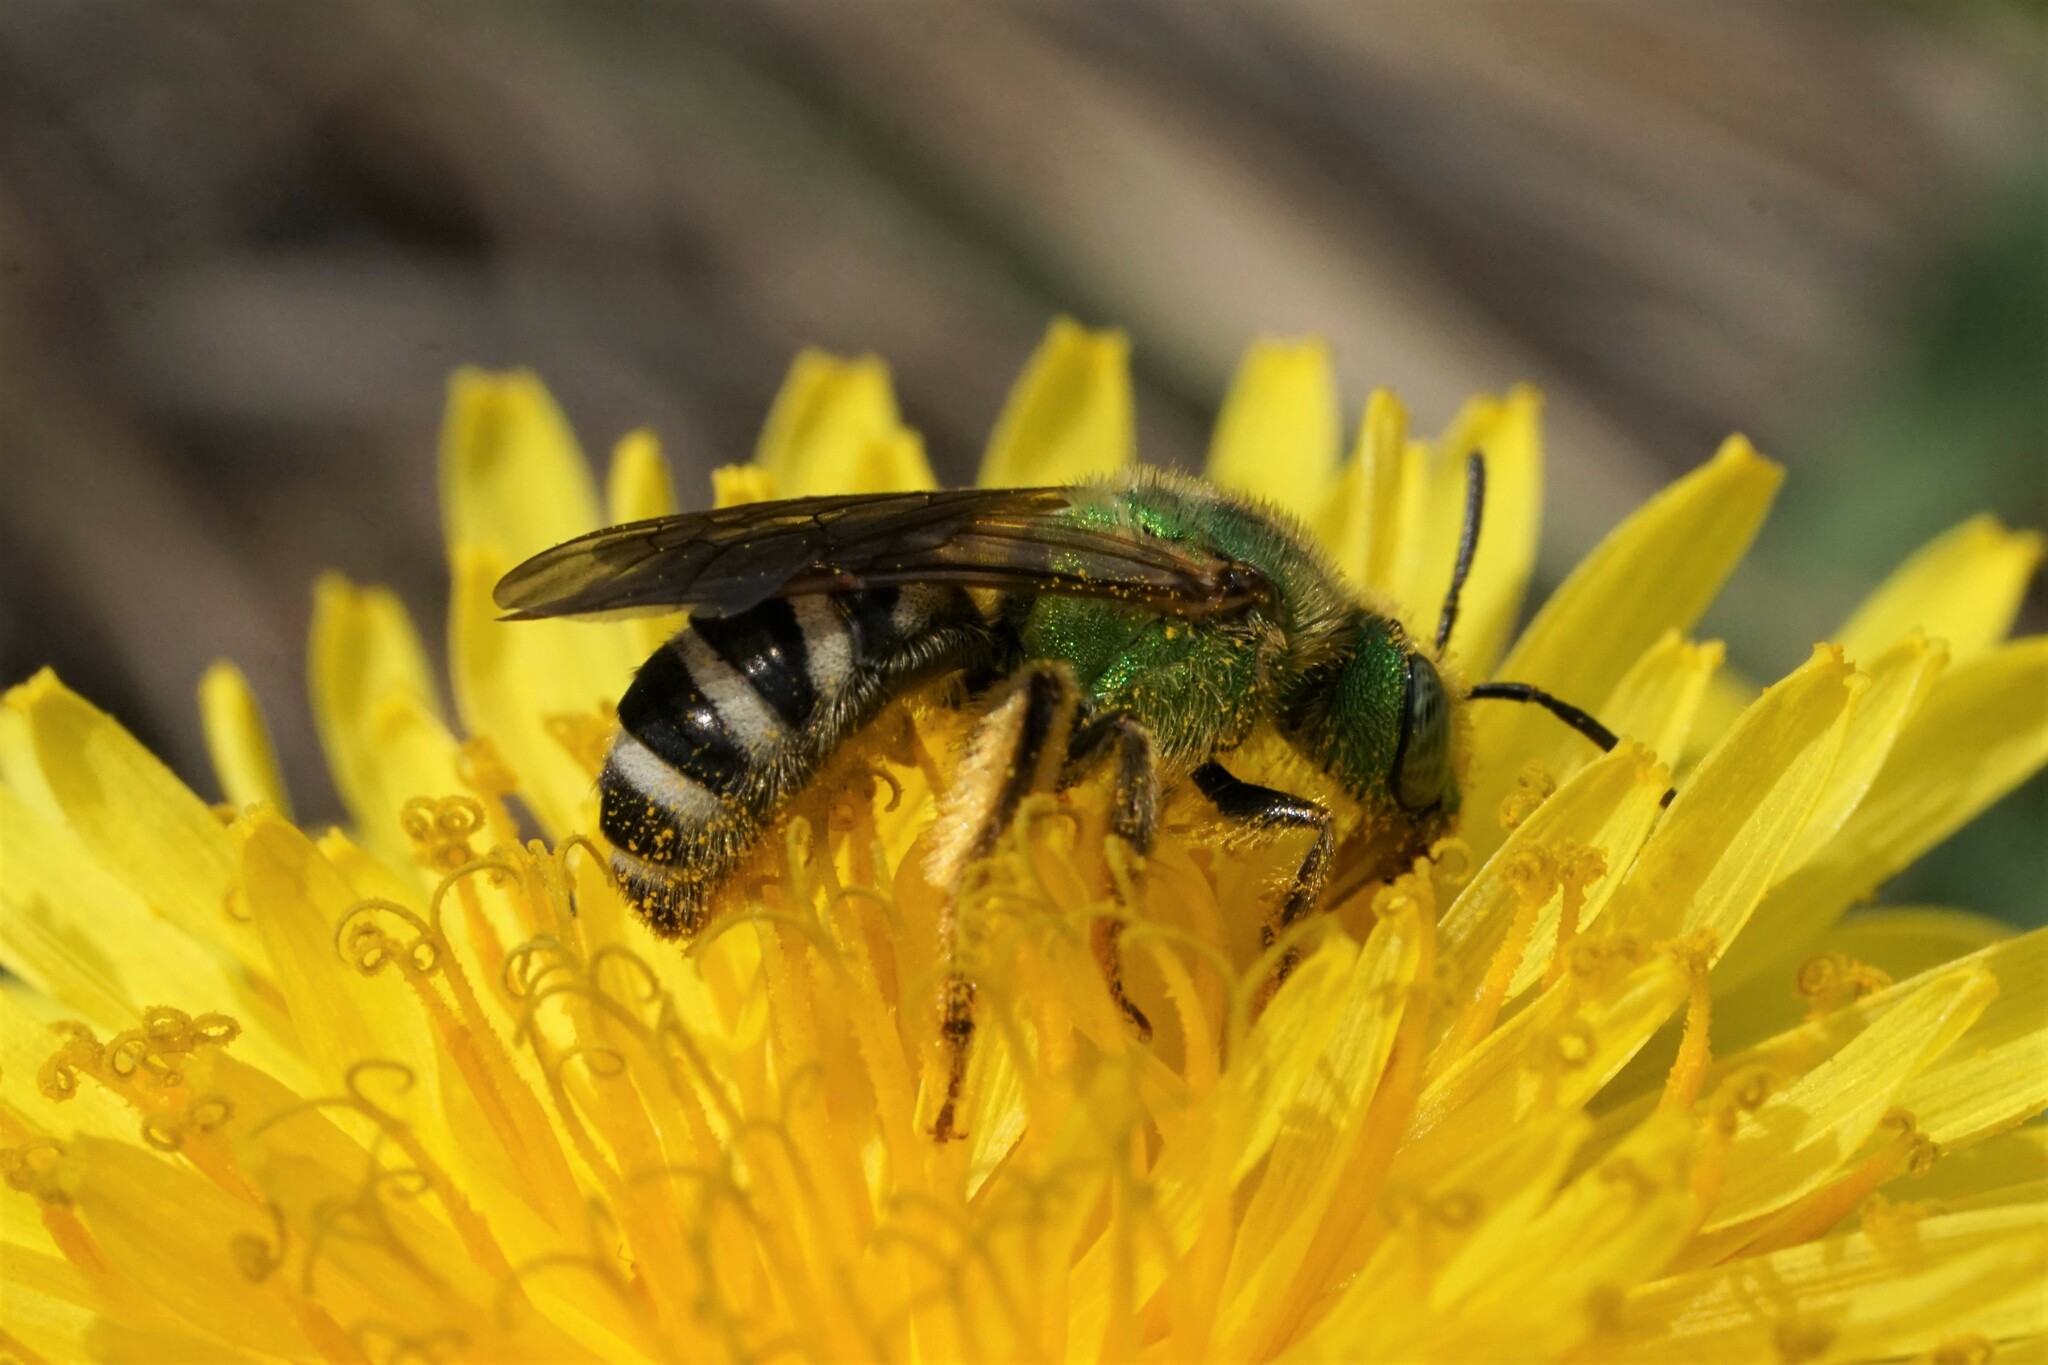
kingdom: Animalia
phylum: Arthropoda
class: Insecta
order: Hymenoptera
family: Halictidae
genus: Agapostemon
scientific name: Agapostemon virescens
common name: Bicolored striped sweat bee
